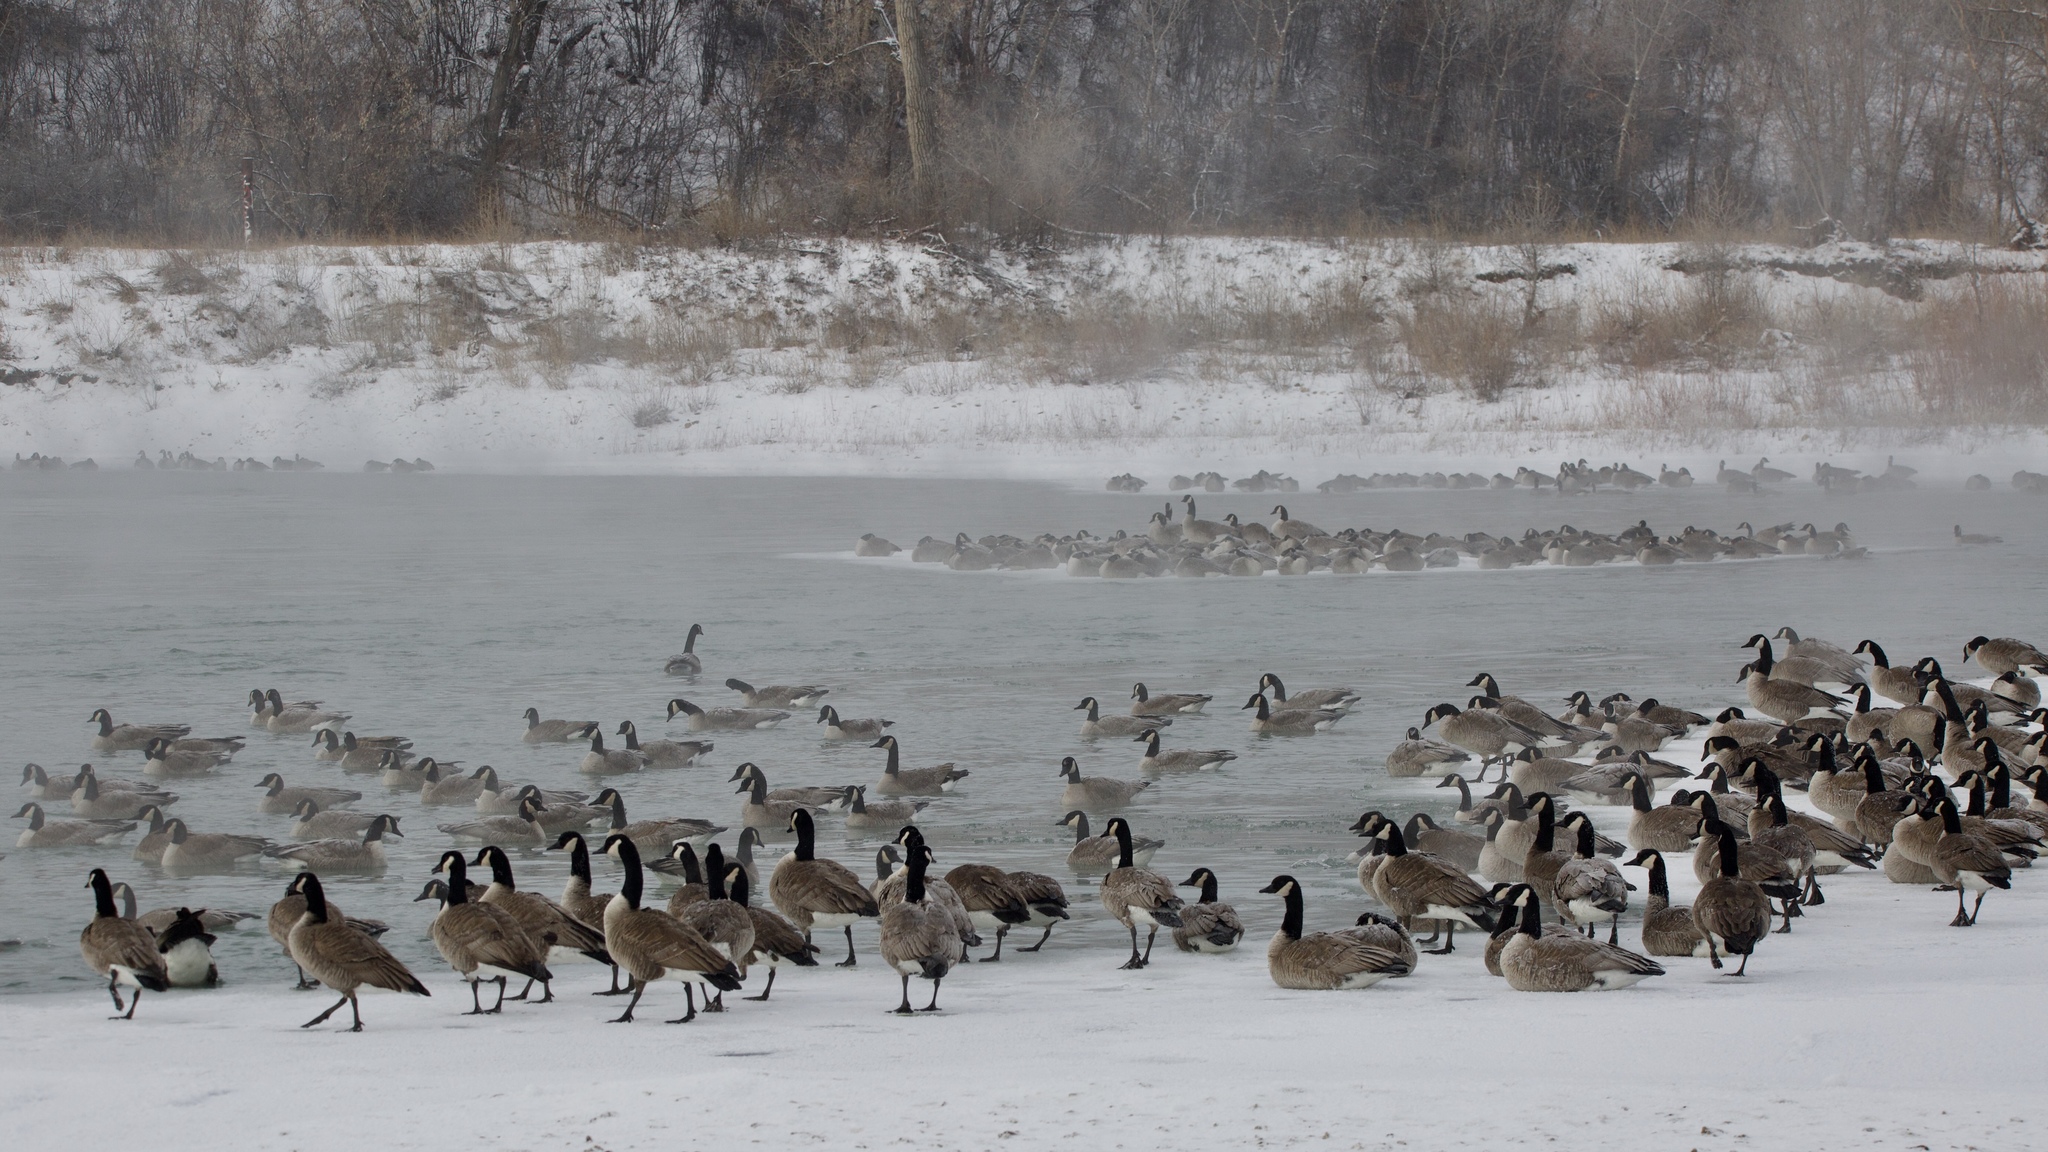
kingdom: Animalia
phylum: Chordata
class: Aves
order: Anseriformes
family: Anatidae
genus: Branta
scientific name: Branta canadensis
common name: Canada goose
